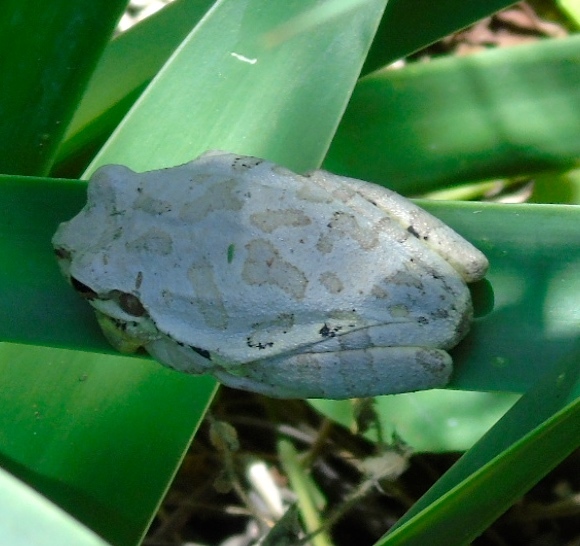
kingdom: Animalia
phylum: Chordata
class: Amphibia
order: Anura
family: Hylidae
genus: Smilisca
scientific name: Smilisca baudinii
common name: Mexican smilisca
